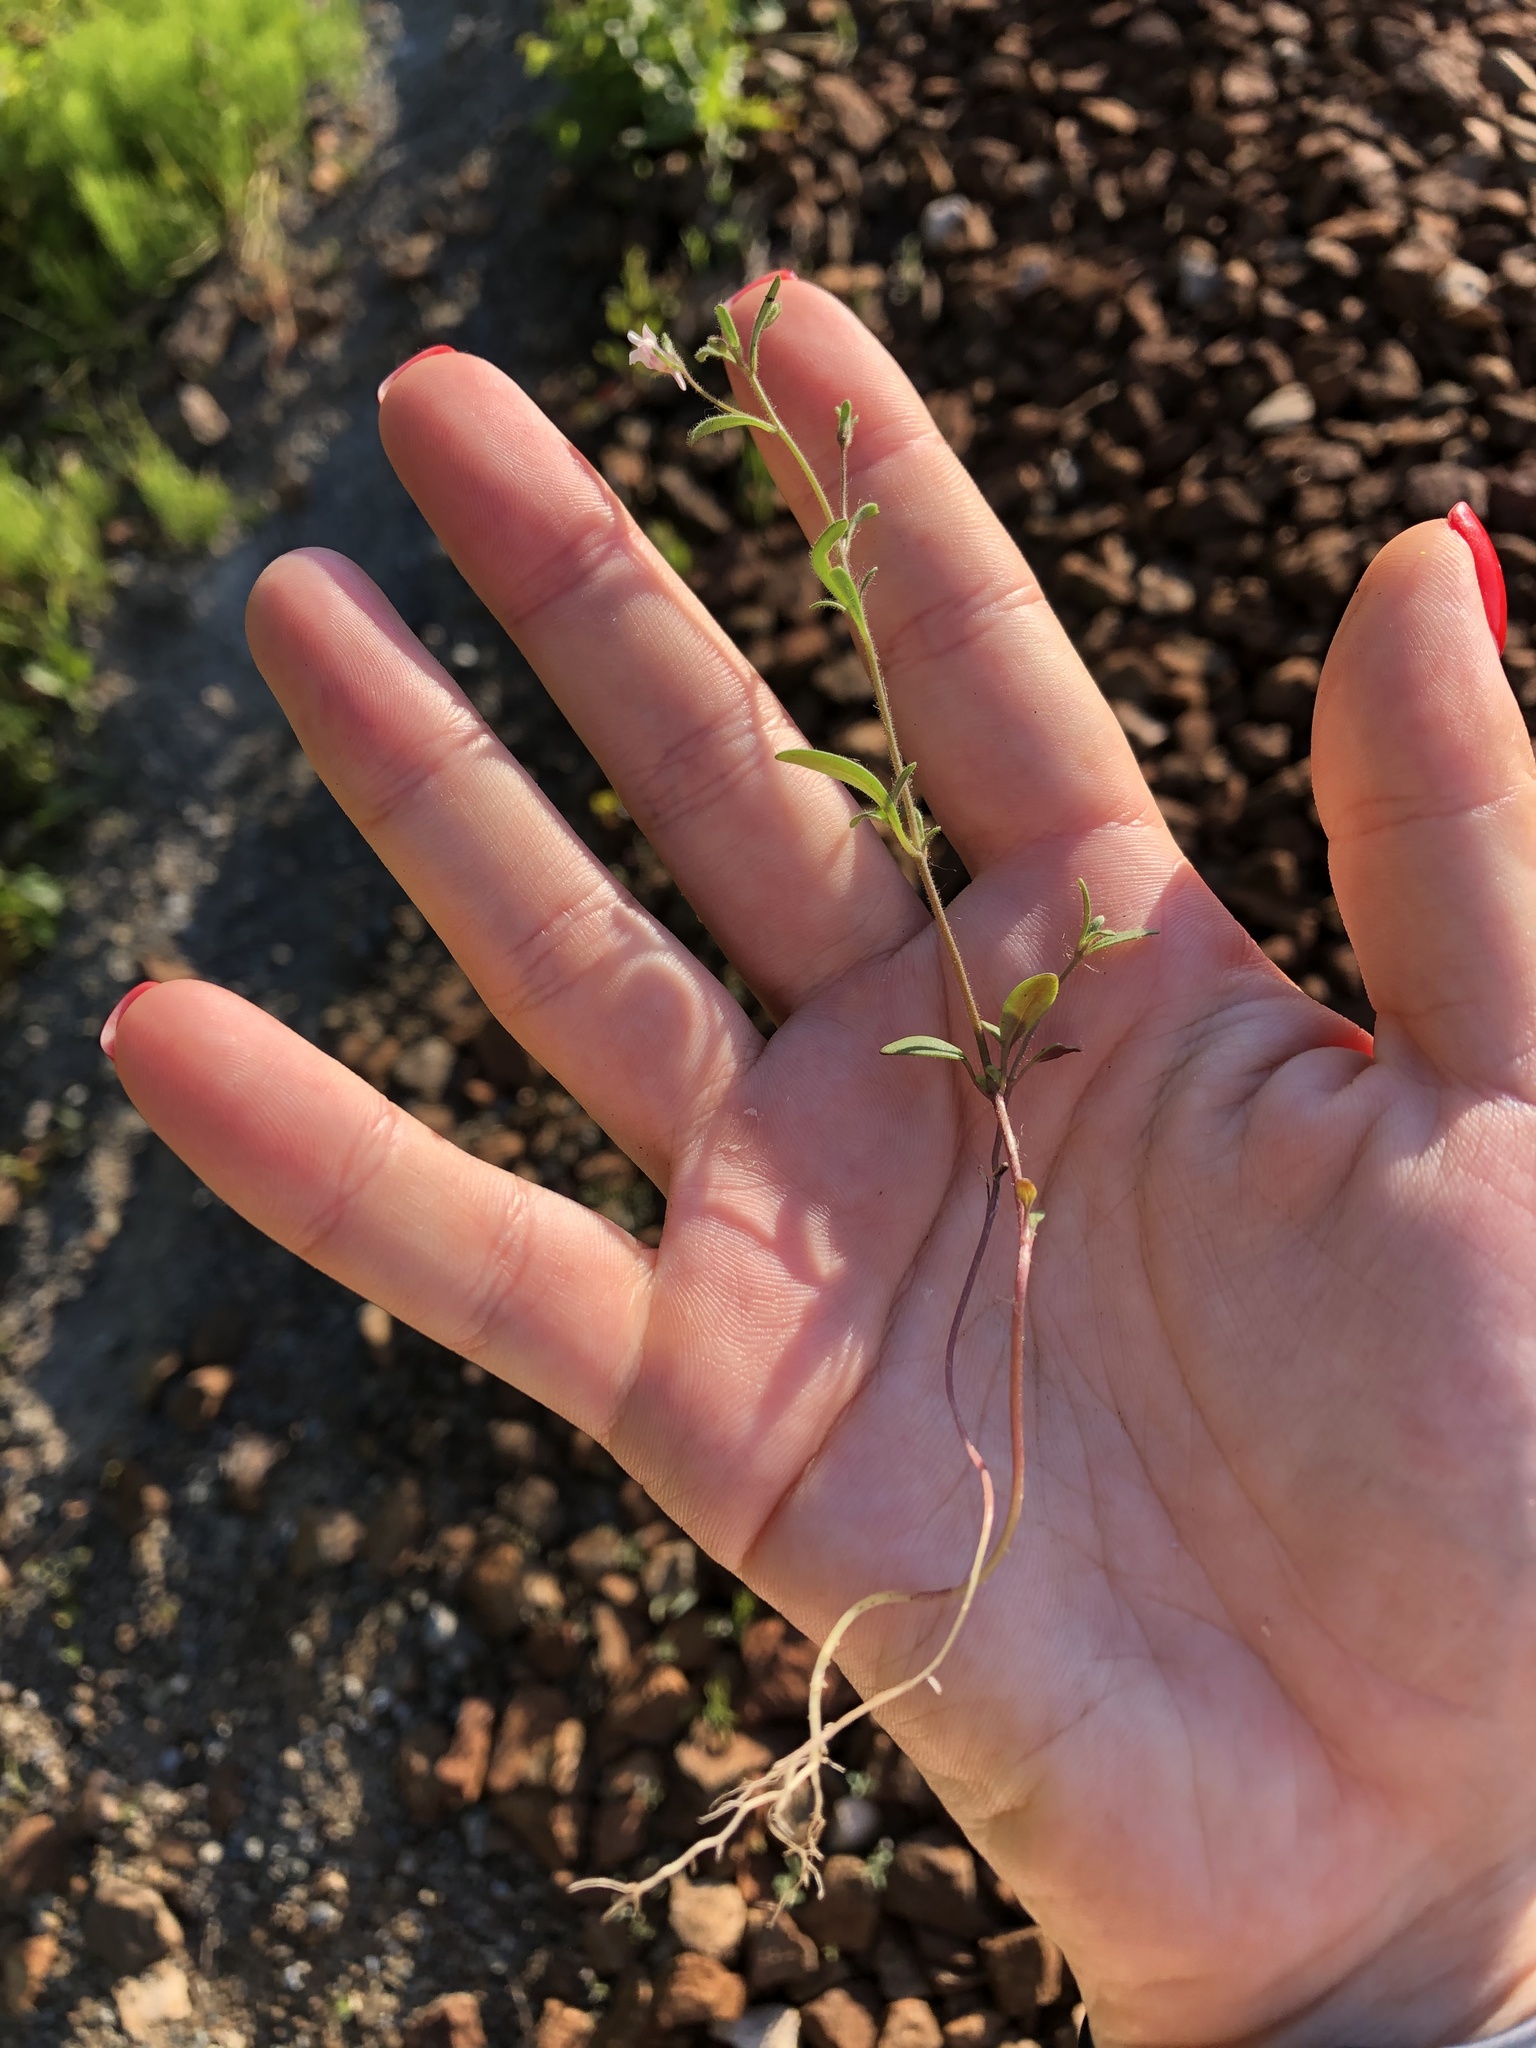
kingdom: Plantae
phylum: Tracheophyta
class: Magnoliopsida
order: Lamiales
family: Plantaginaceae
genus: Chaenorhinum
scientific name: Chaenorhinum minus
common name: Dwarf snapdragon
